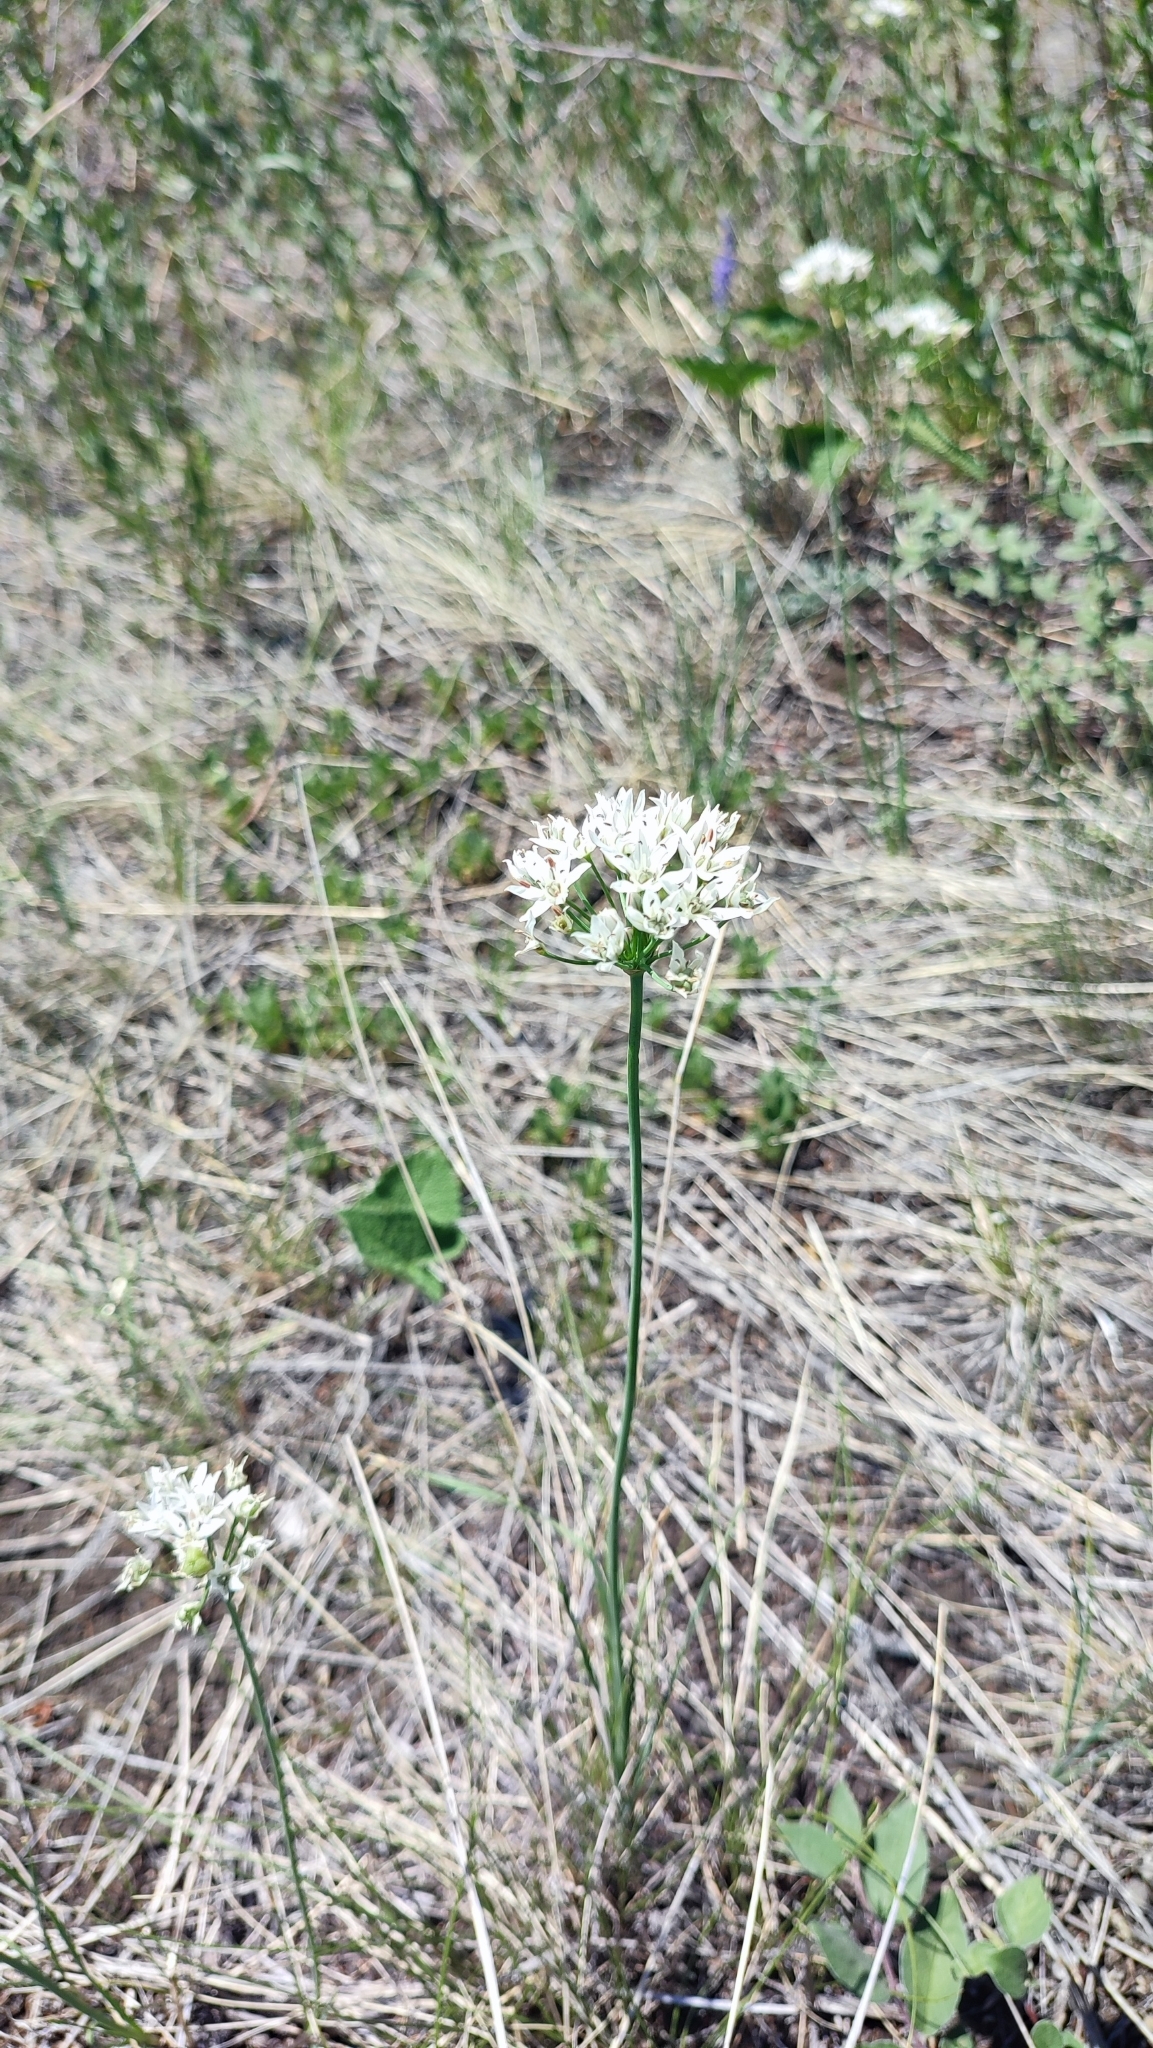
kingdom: Plantae
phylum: Tracheophyta
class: Liliopsida
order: Asparagales
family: Amaryllidaceae
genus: Allium
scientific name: Allium ramosum
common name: Fragrant garlic
